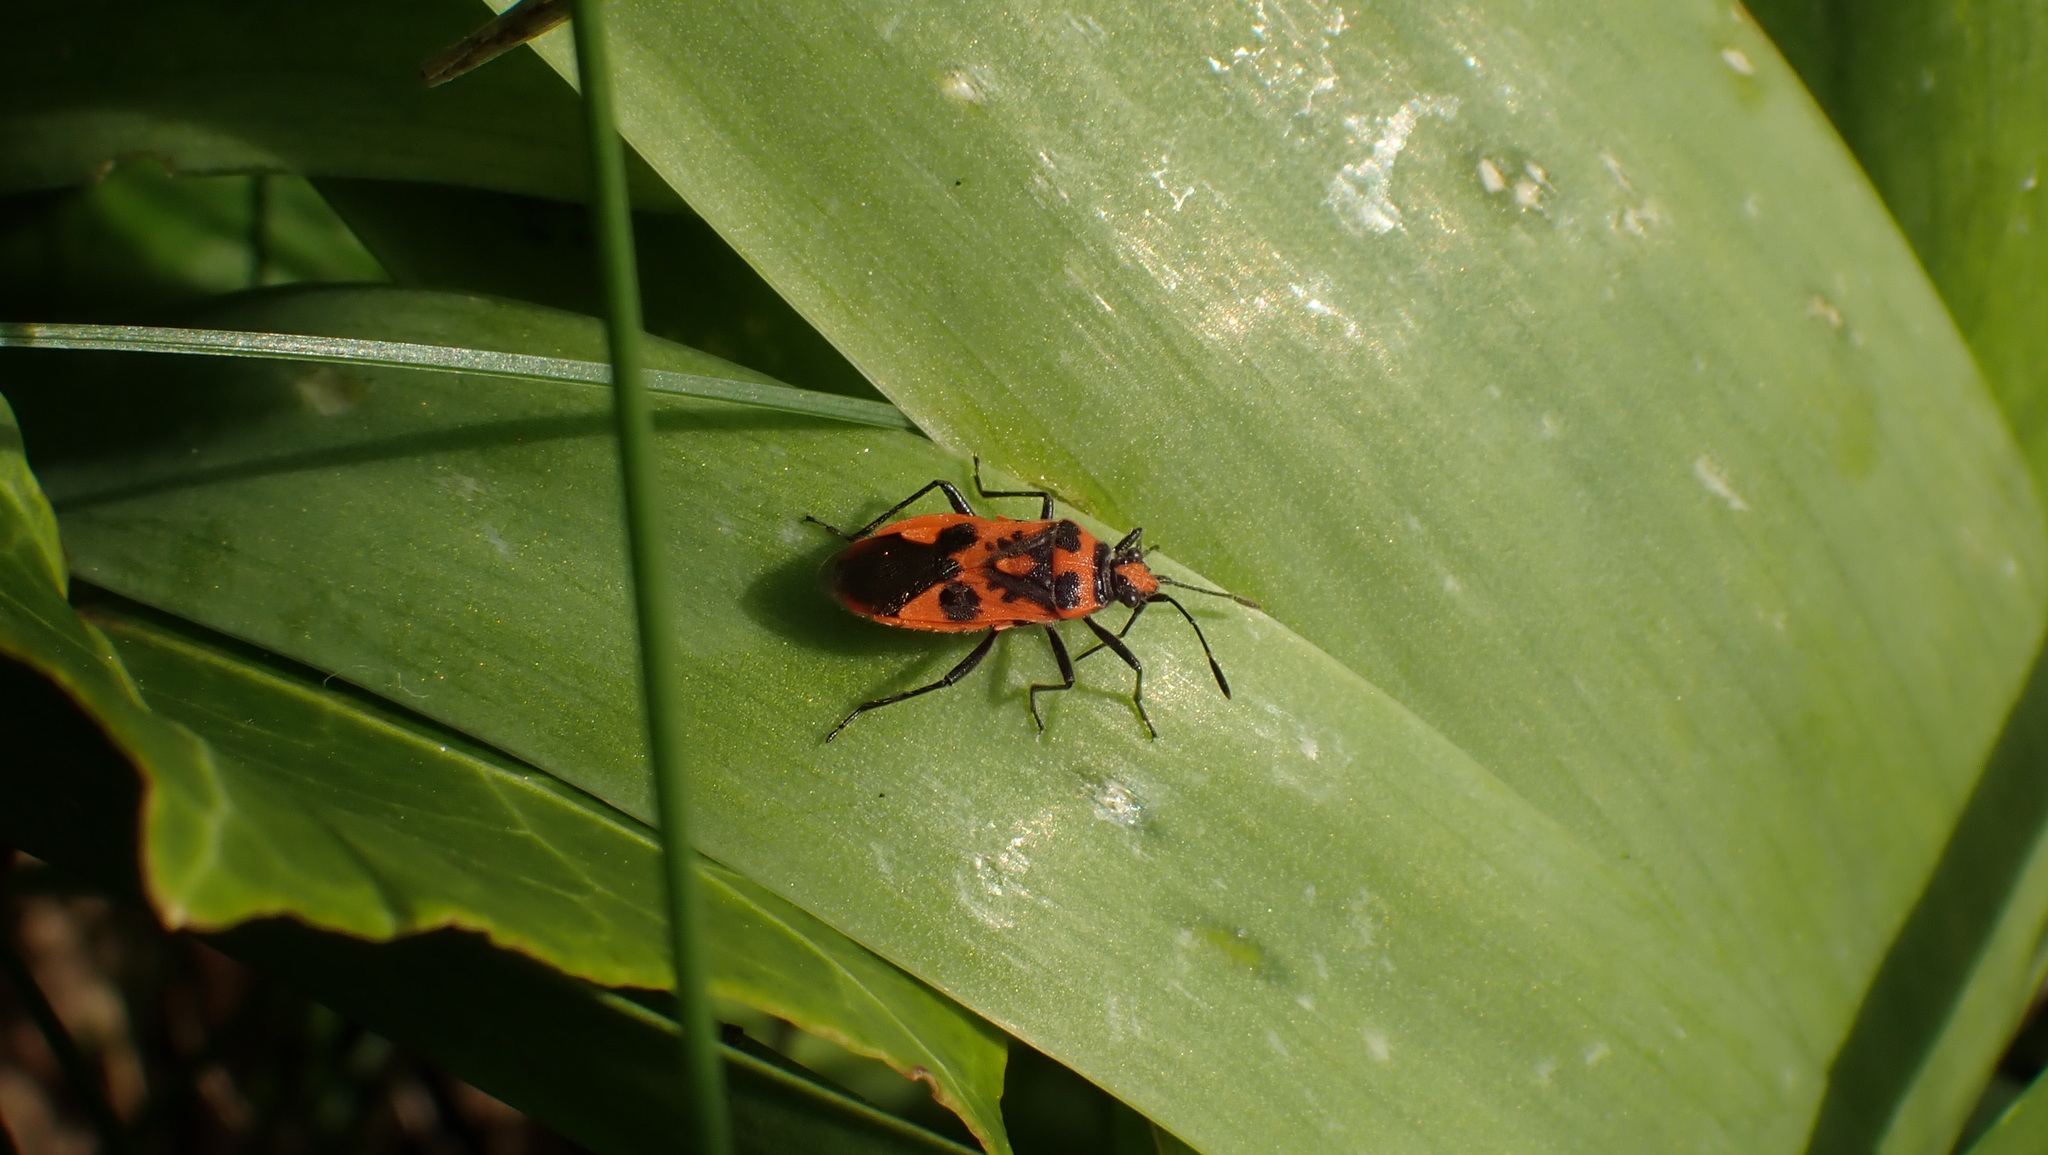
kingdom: Animalia
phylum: Arthropoda
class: Insecta
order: Hemiptera
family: Rhopalidae
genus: Corizus
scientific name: Corizus hyoscyami
